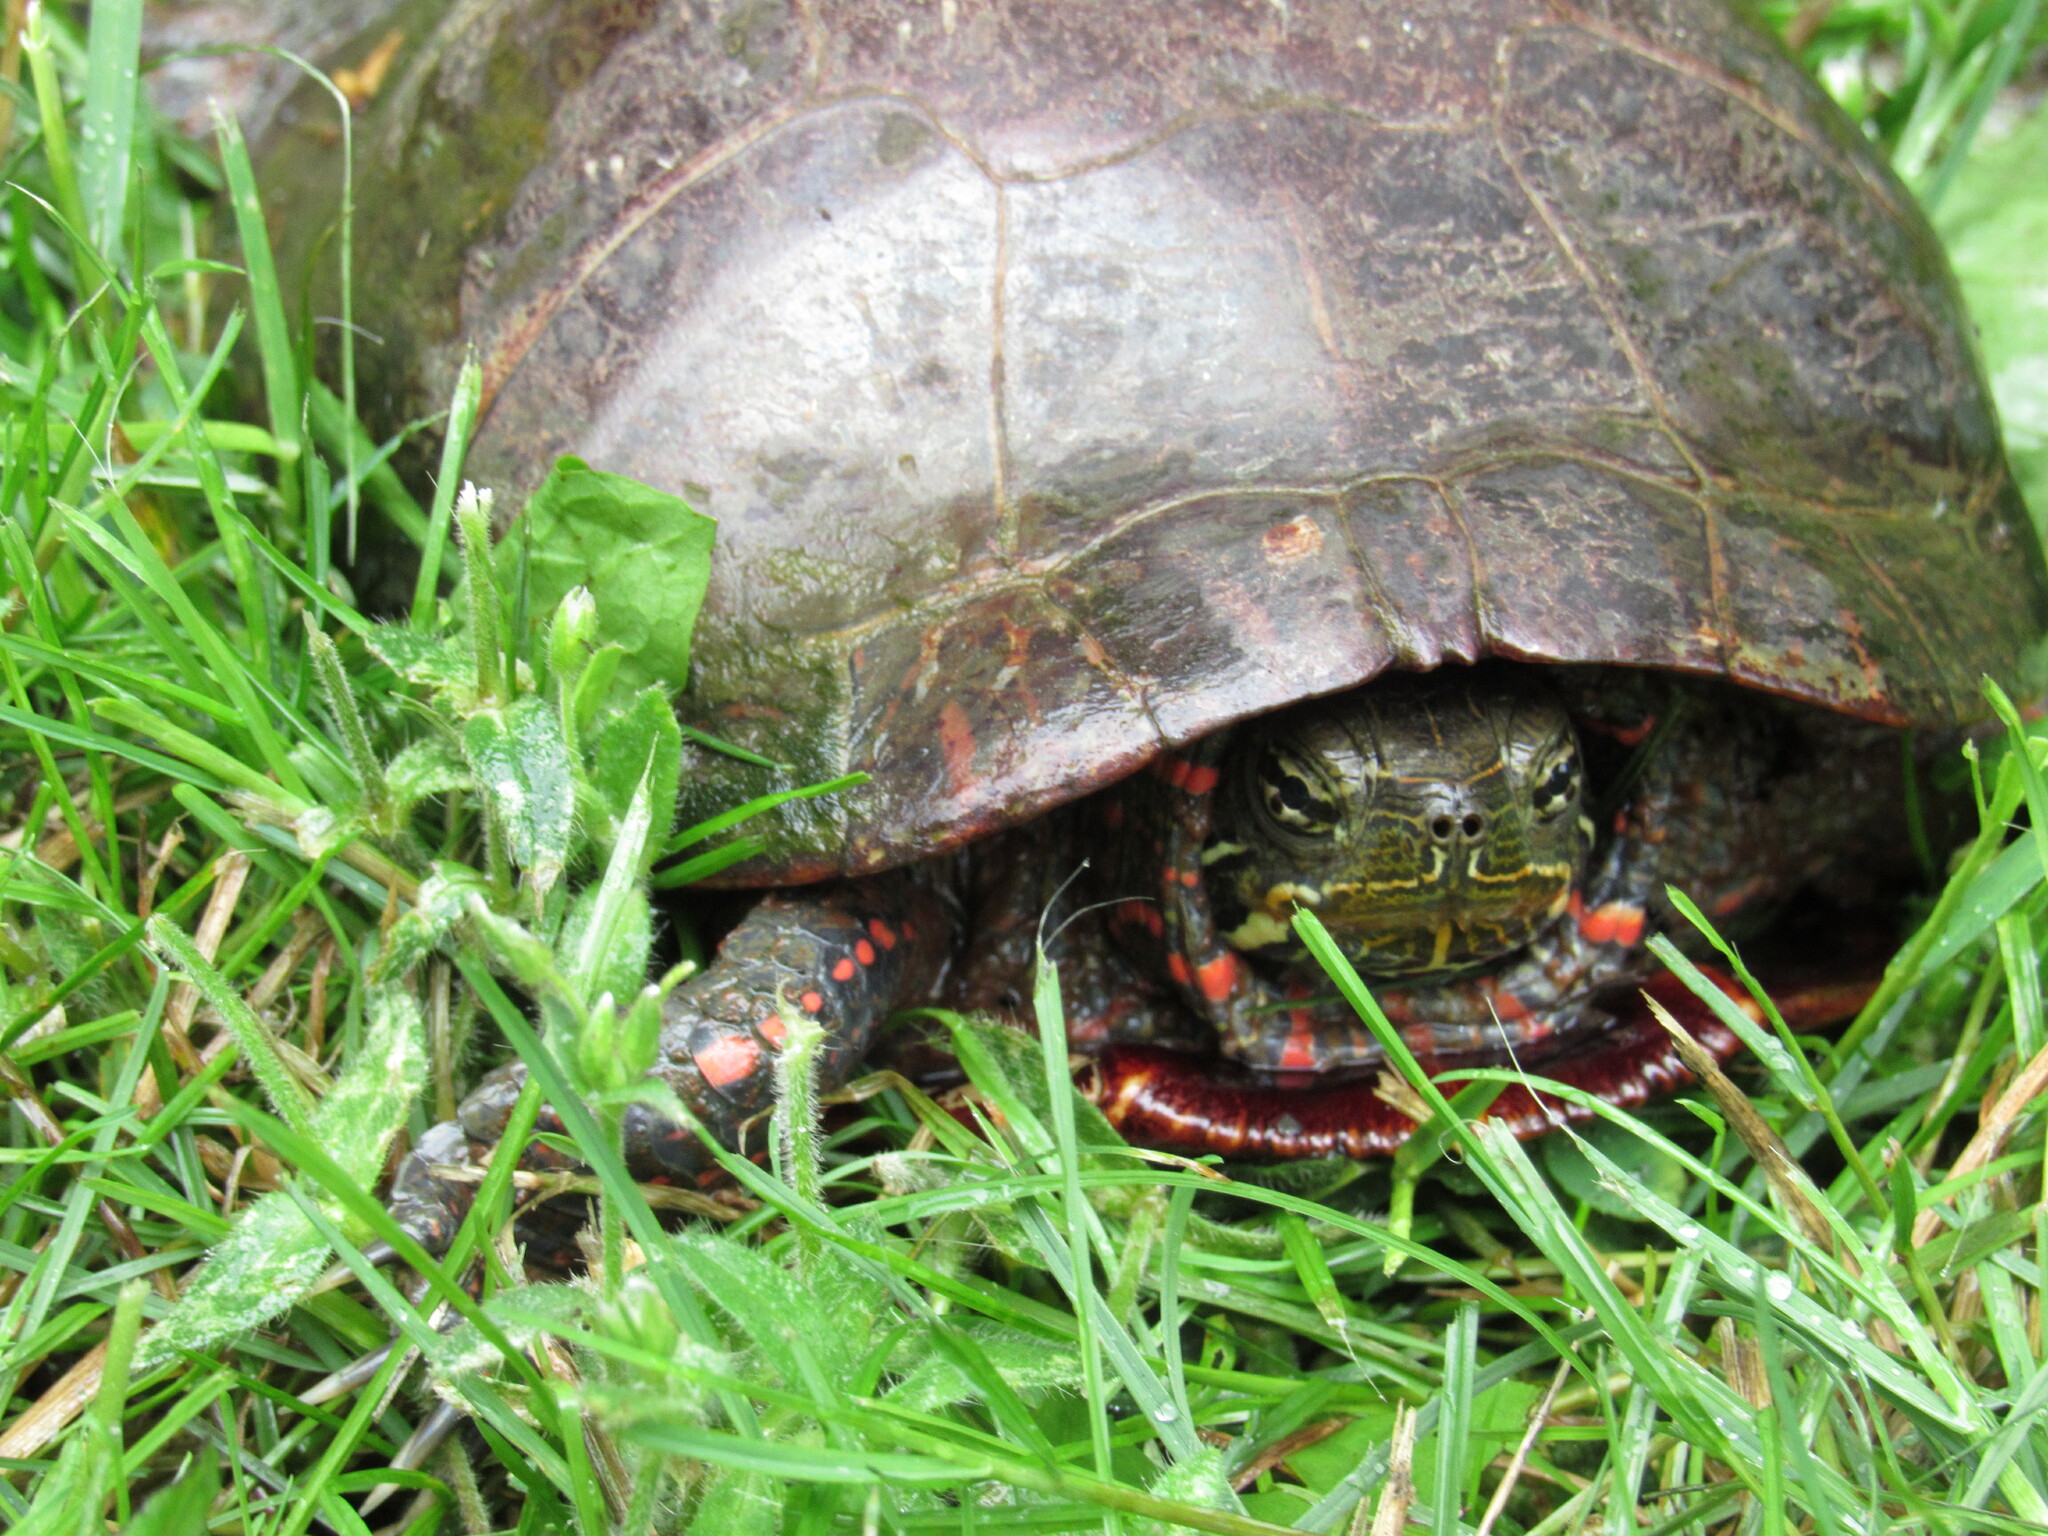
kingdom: Animalia
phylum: Chordata
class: Testudines
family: Emydidae
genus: Chrysemys
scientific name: Chrysemys picta
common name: Painted turtle
